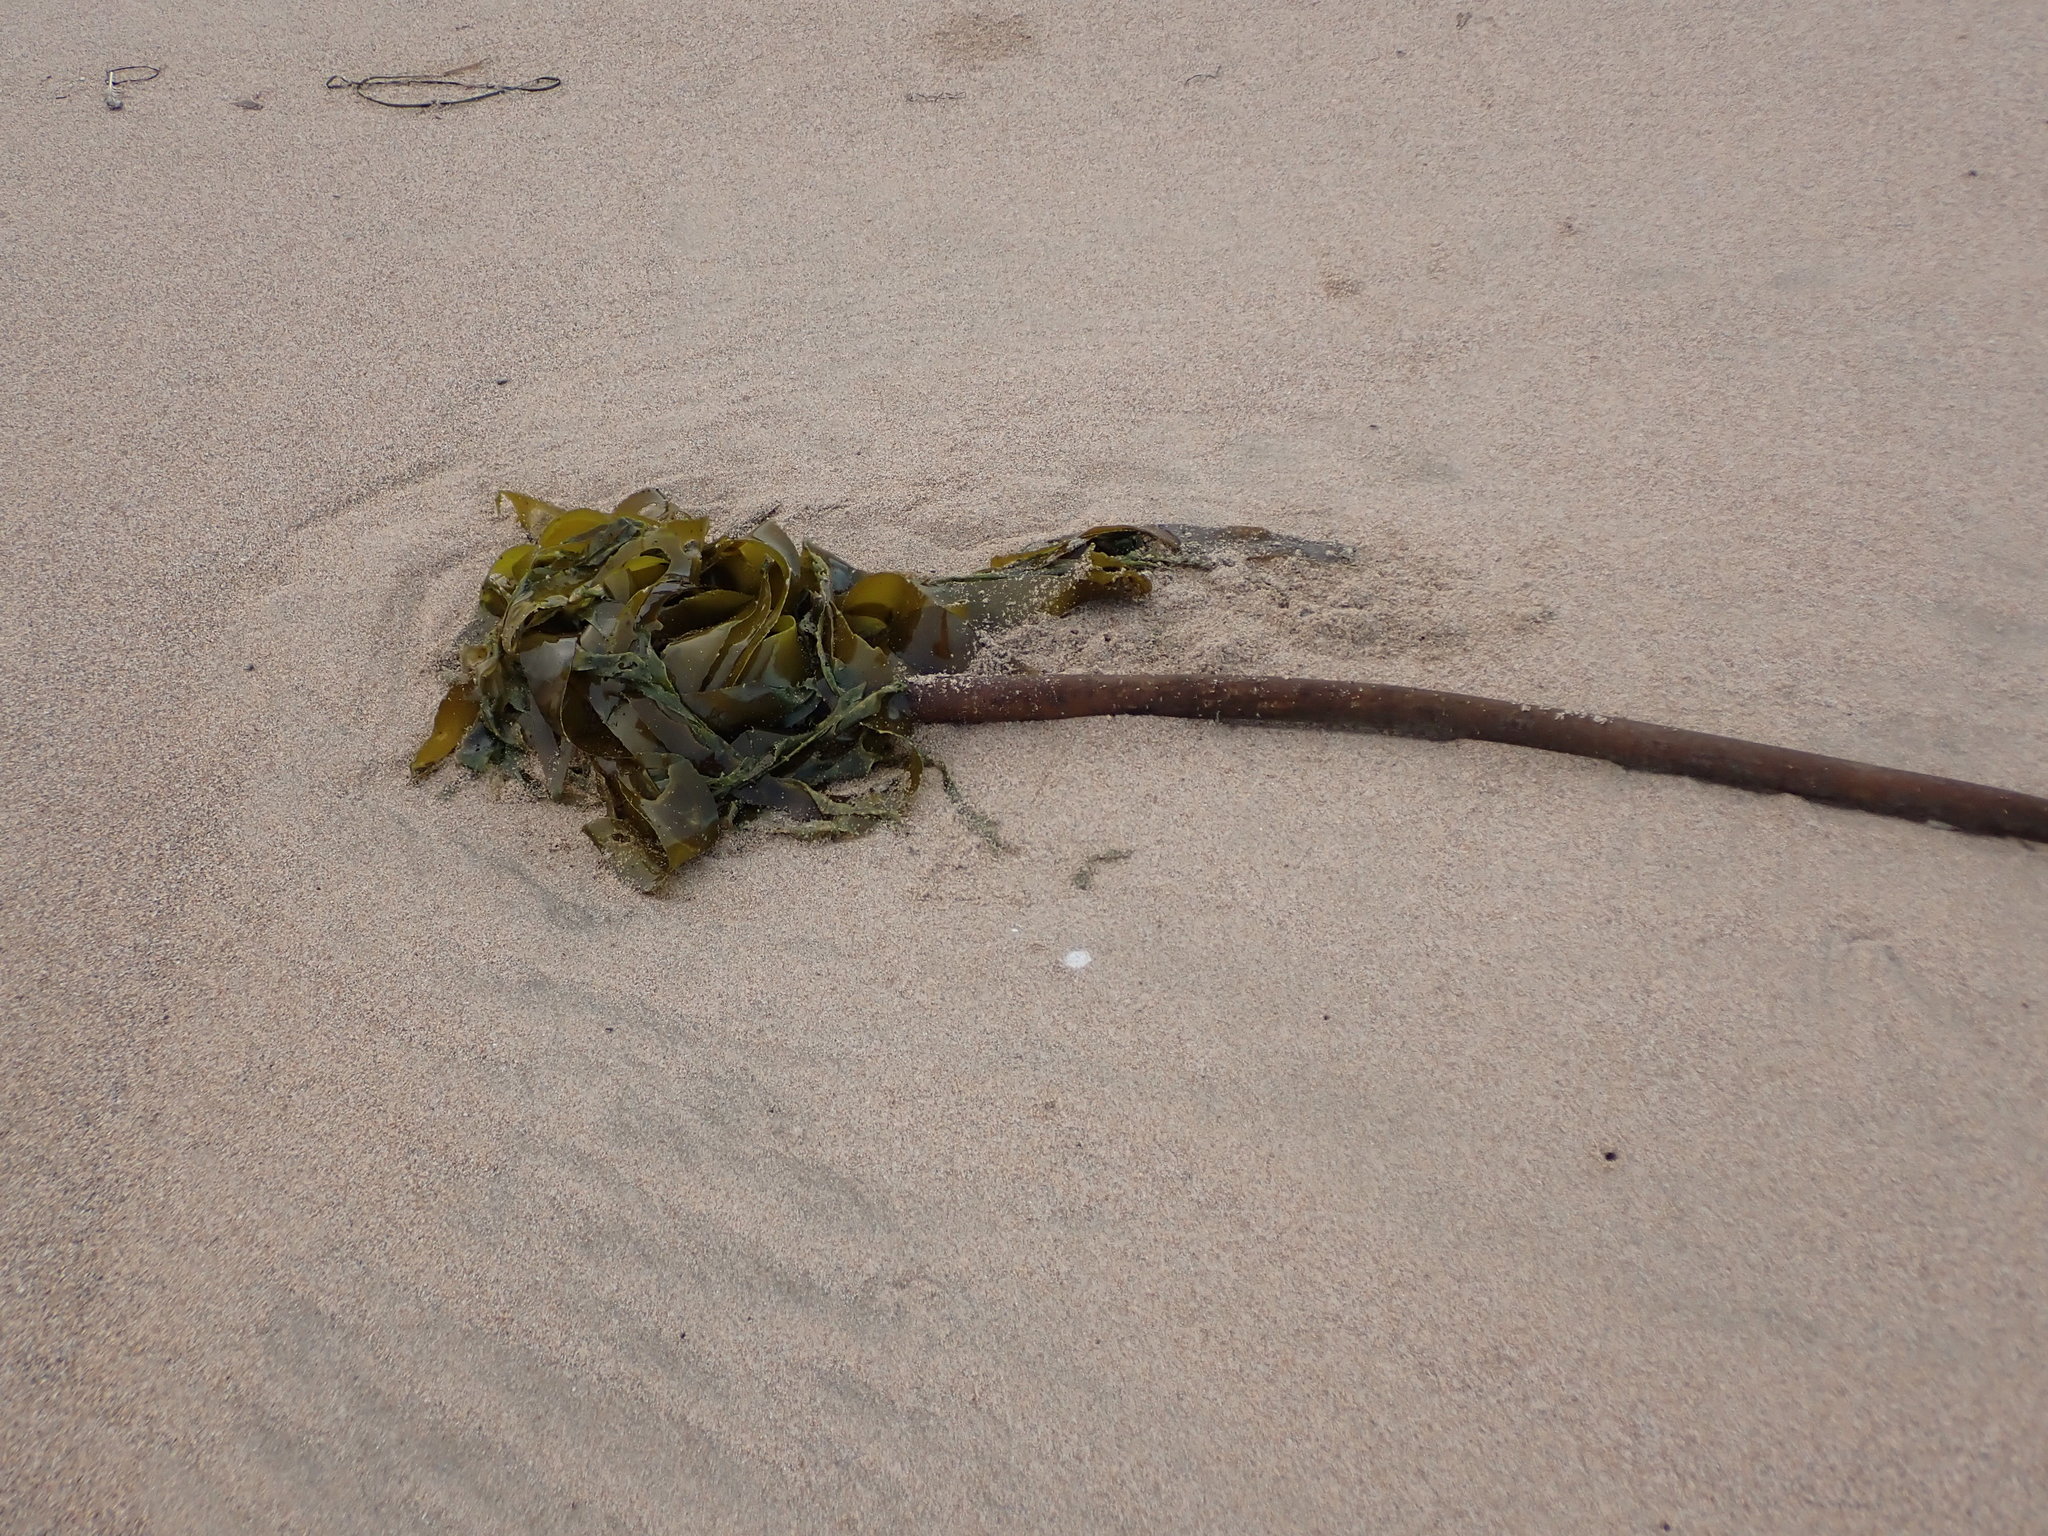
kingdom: Chromista
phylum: Ochrophyta
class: Phaeophyceae
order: Laminariales
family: Laminariaceae
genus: Nereocystis
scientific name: Nereocystis luetkeana
